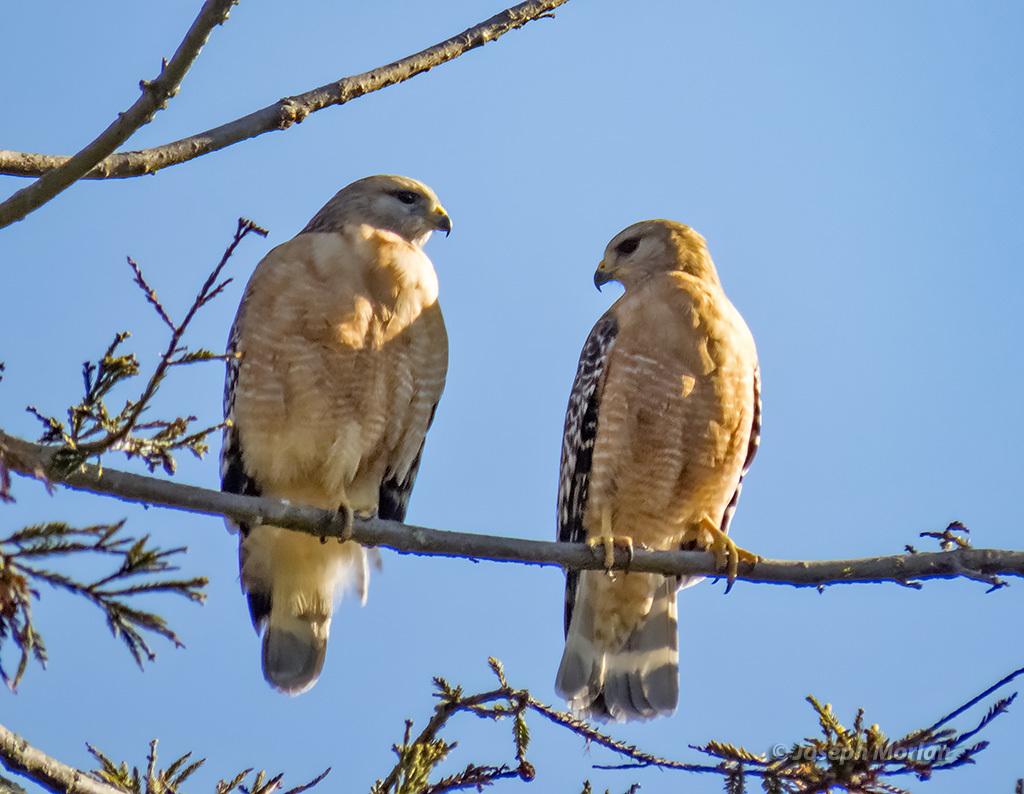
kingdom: Animalia
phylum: Chordata
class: Aves
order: Accipitriformes
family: Accipitridae
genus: Buteo
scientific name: Buteo lineatus
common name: Red-shouldered hawk
